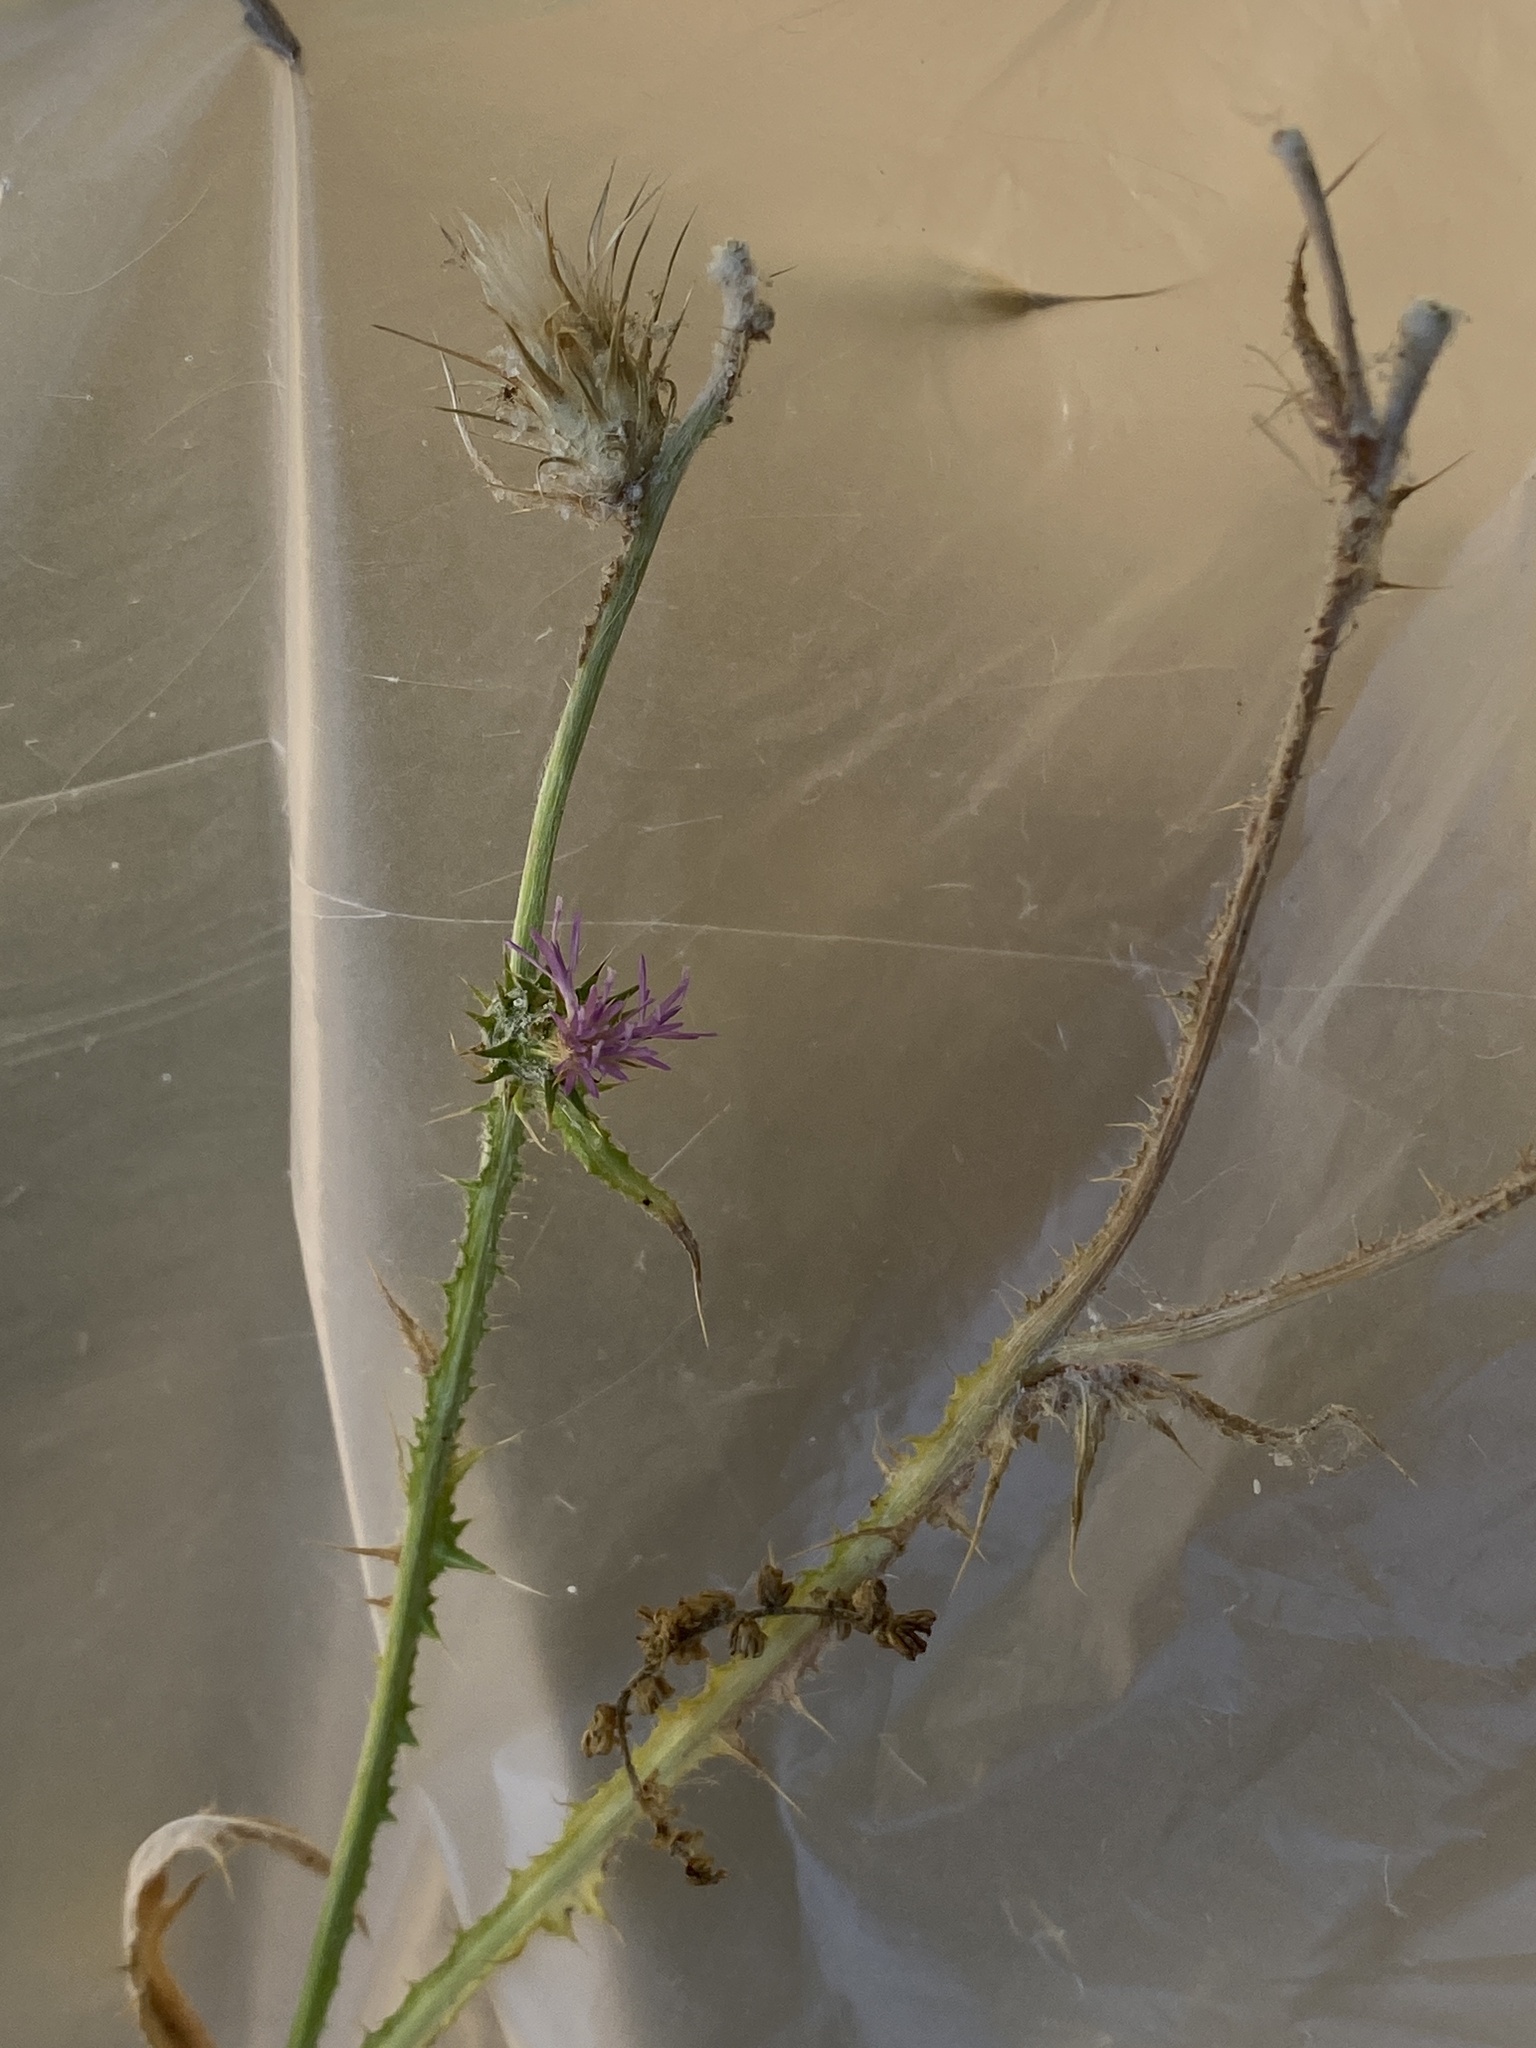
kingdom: Plantae
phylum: Tracheophyta
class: Magnoliopsida
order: Asterales
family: Asteraceae
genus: Carduus
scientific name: Carduus pycnocephalus
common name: Plymouth thistle
